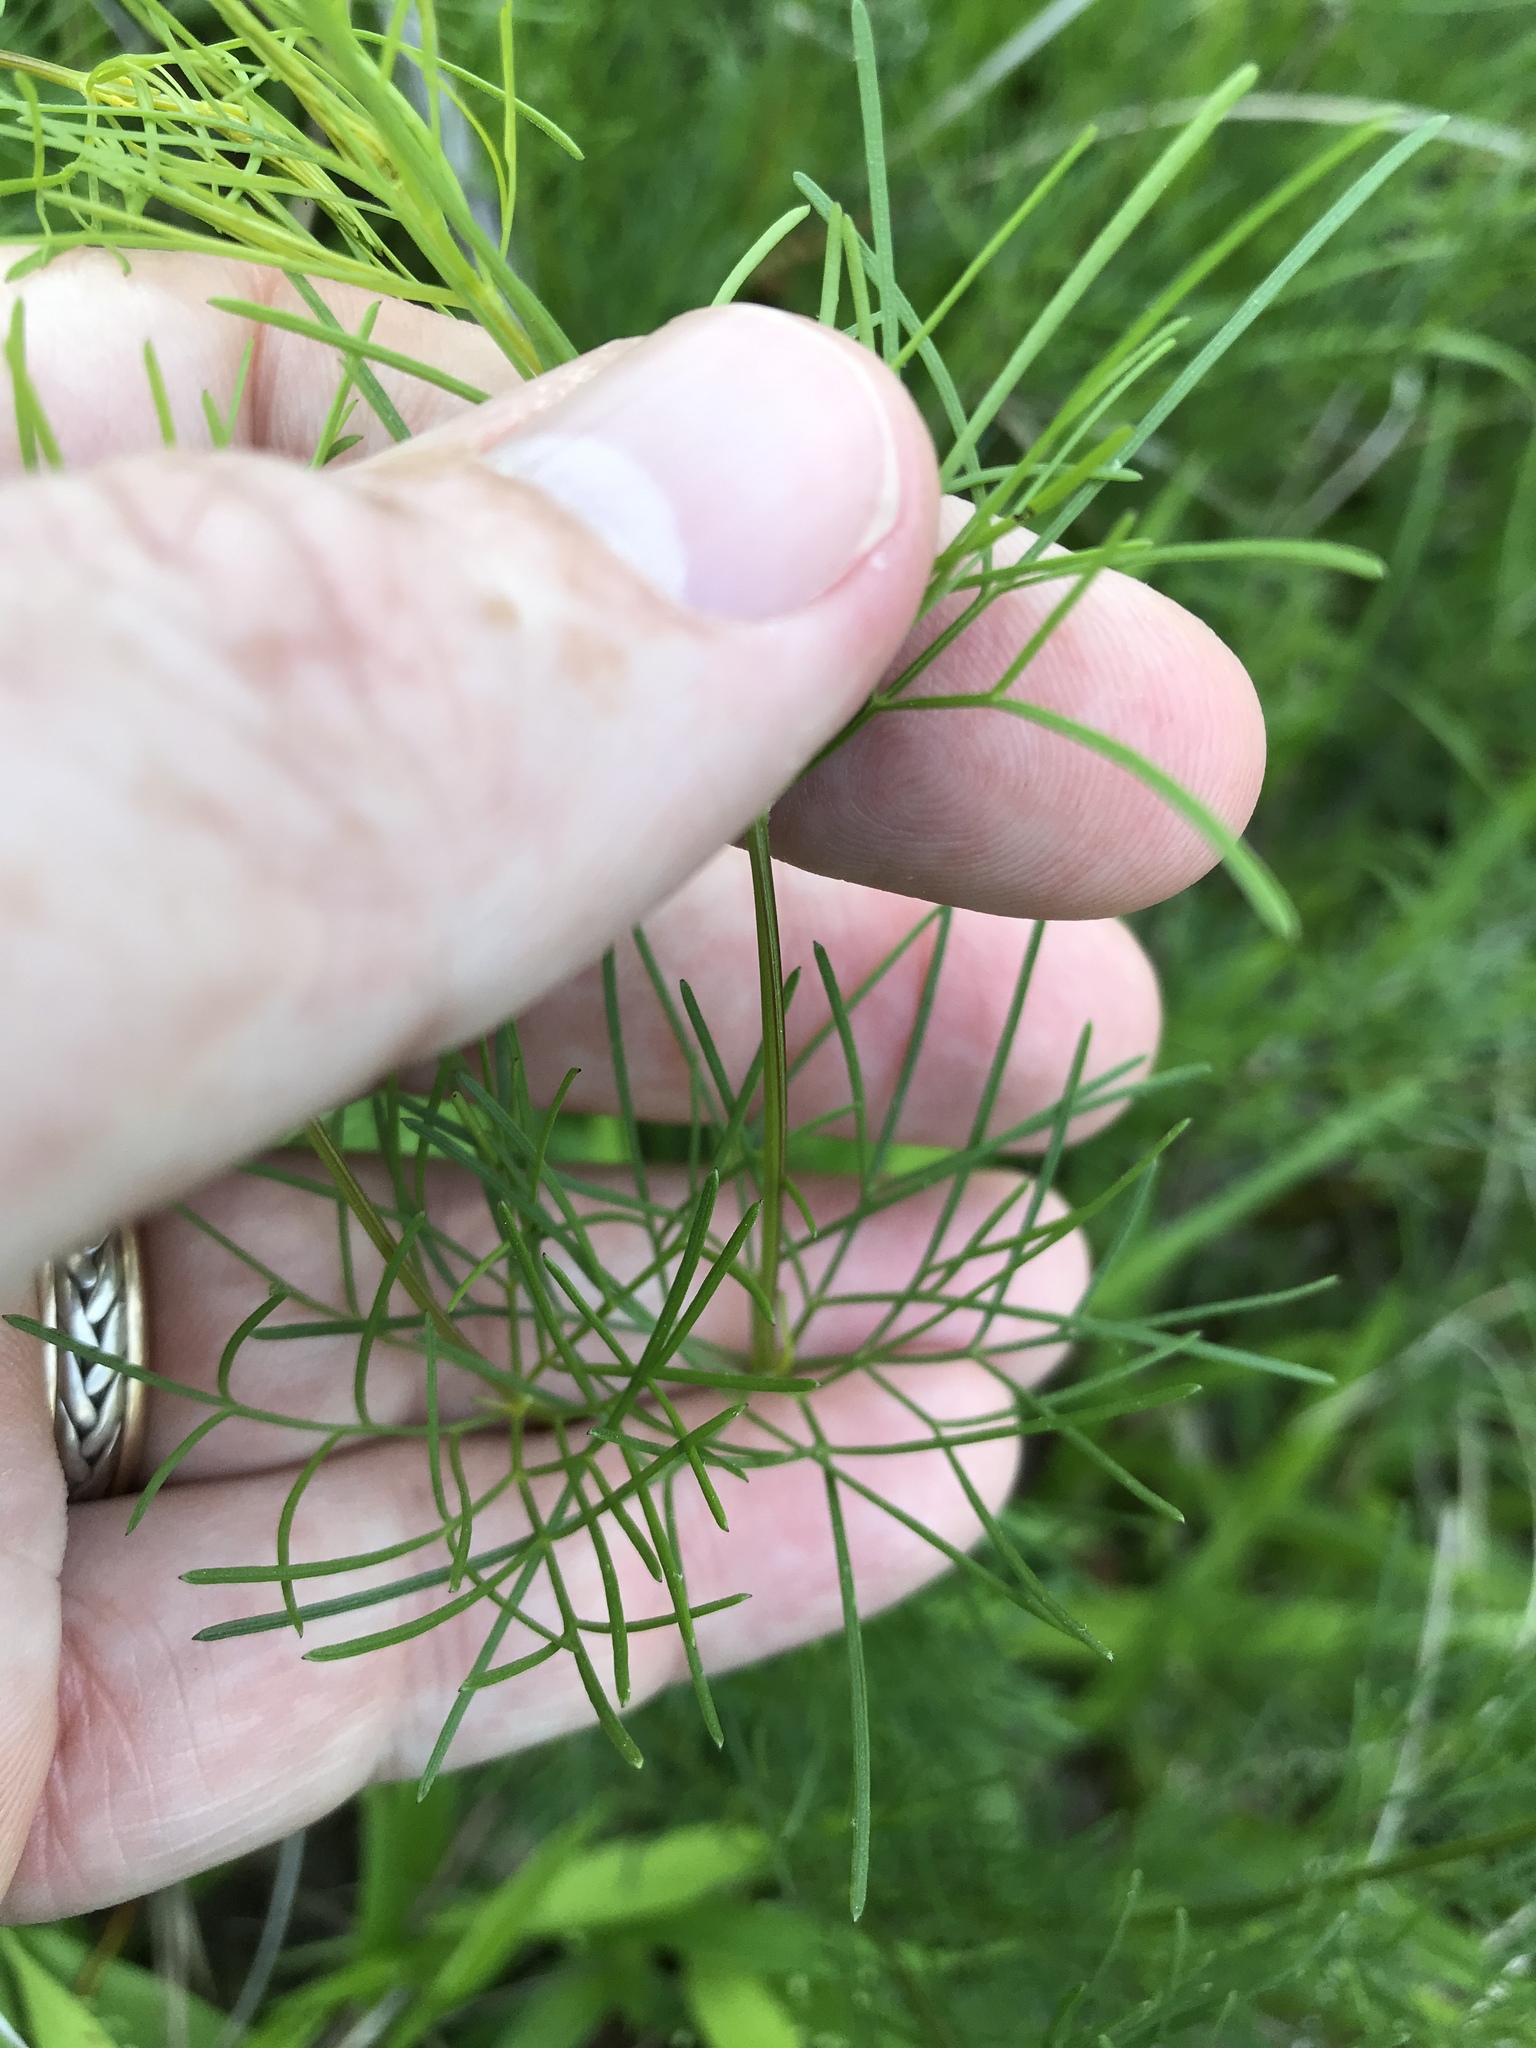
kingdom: Plantae
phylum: Tracheophyta
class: Magnoliopsida
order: Asterales
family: Asteraceae
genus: Coreopsis
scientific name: Coreopsis verticillata
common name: Whorled tickseed
